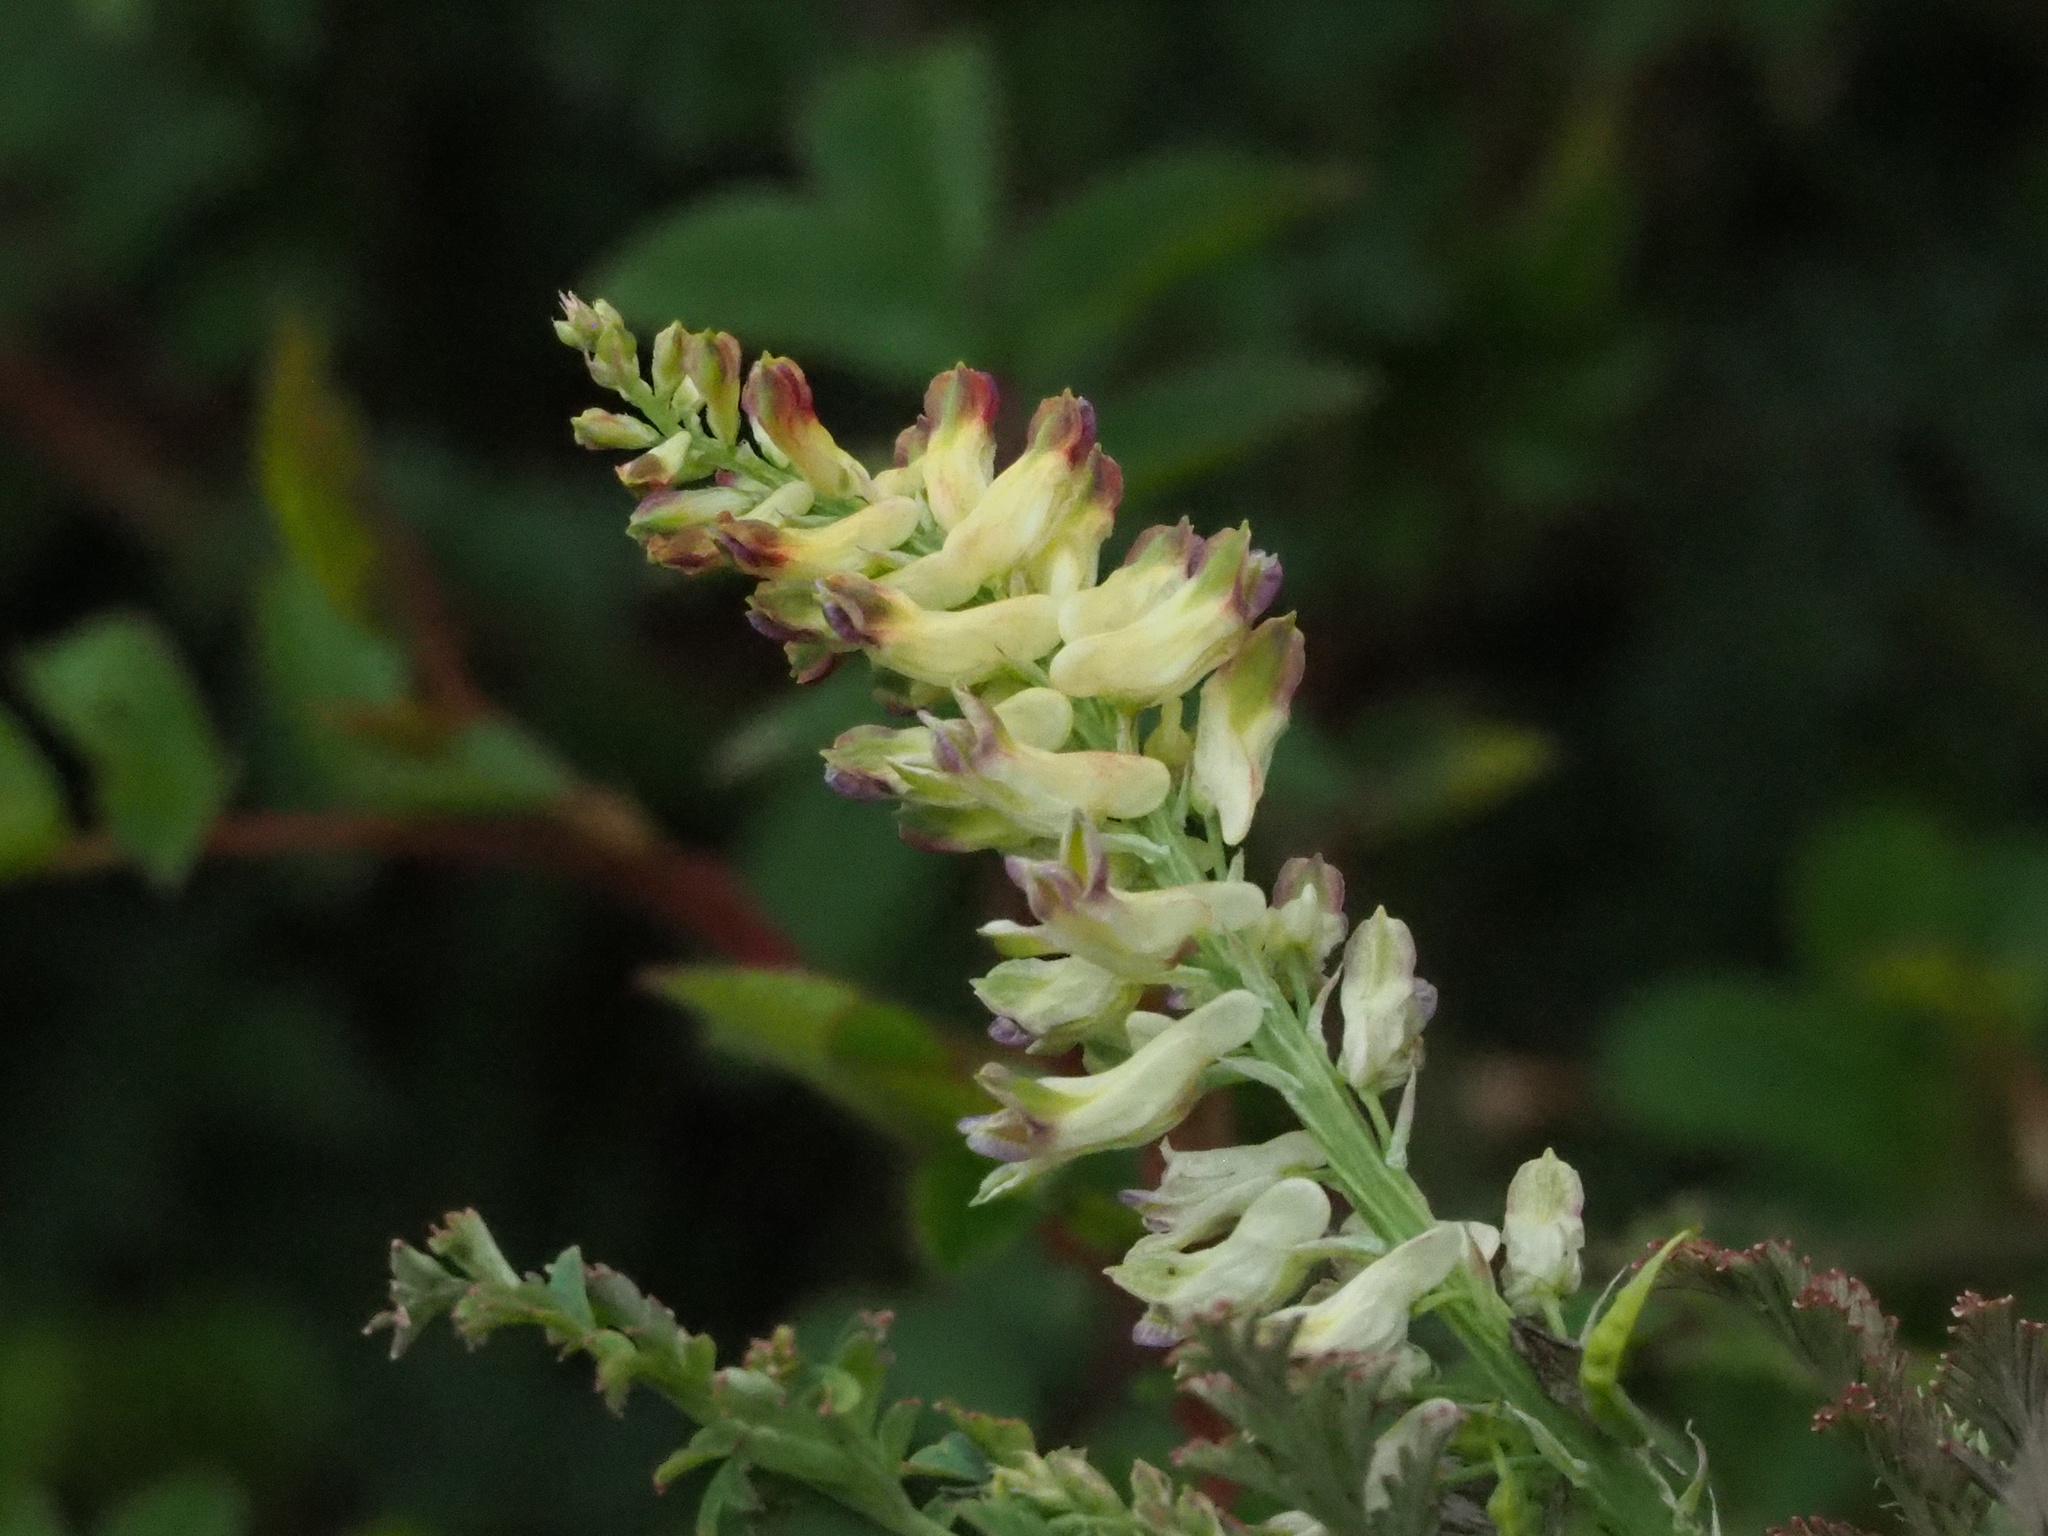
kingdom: Plantae
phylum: Tracheophyta
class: Magnoliopsida
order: Ranunculales
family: Papaveraceae
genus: Corydalis
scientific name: Corydalis ophiocarpa
